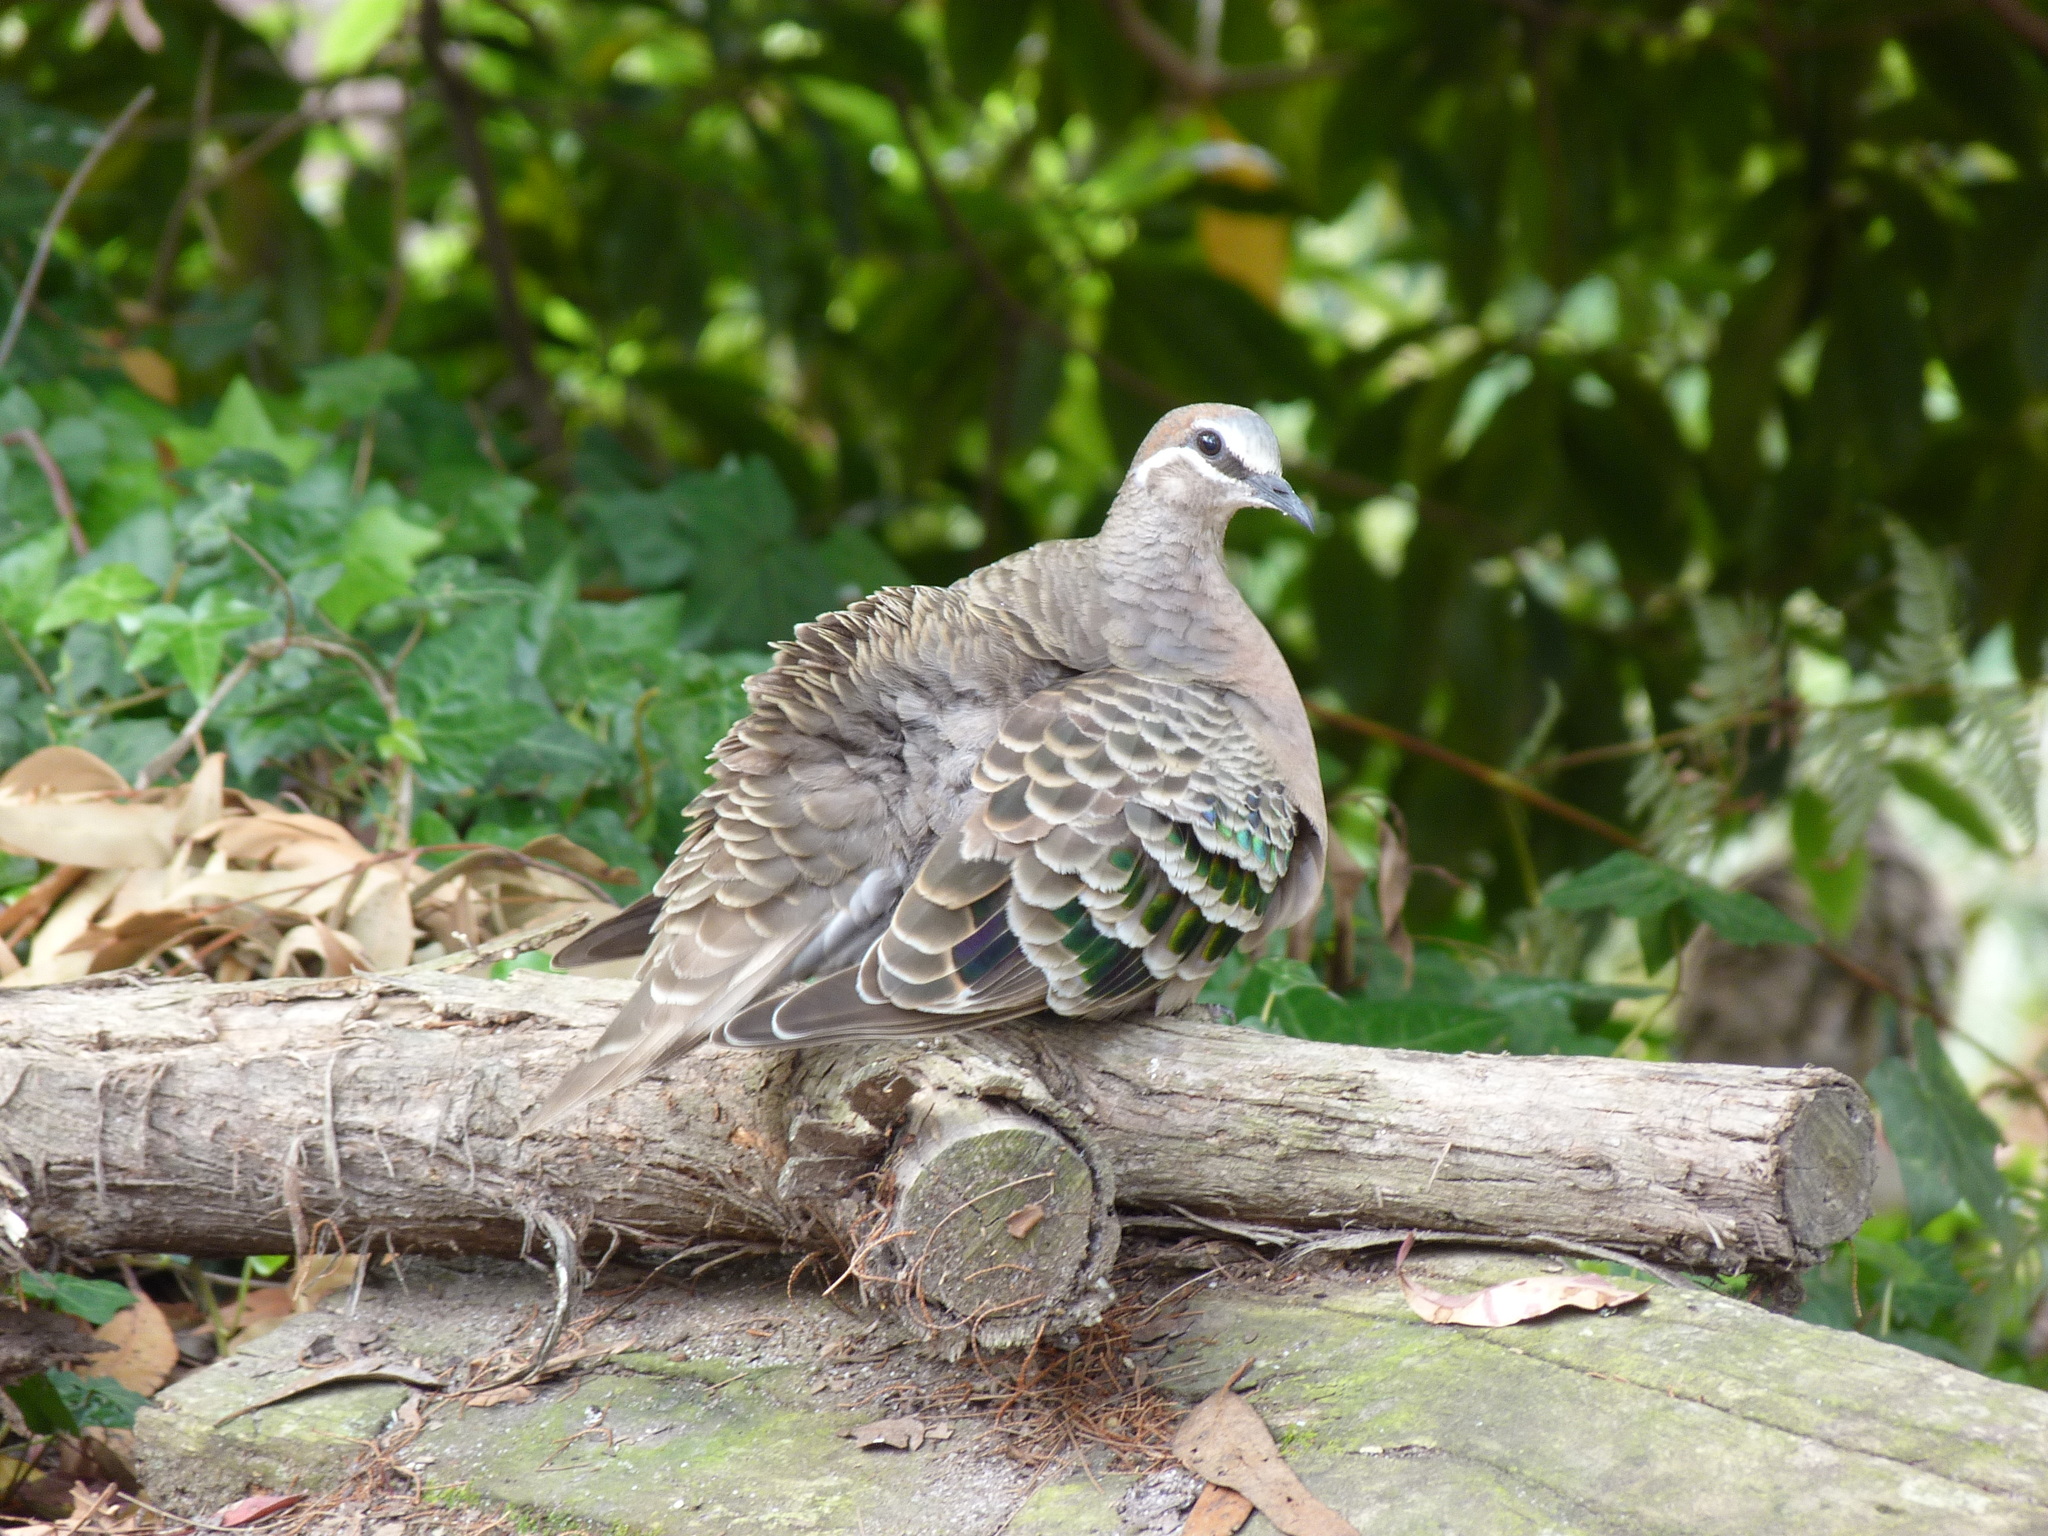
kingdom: Animalia
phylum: Chordata
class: Aves
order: Columbiformes
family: Columbidae
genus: Phaps
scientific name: Phaps chalcoptera
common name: Common bronzewing
